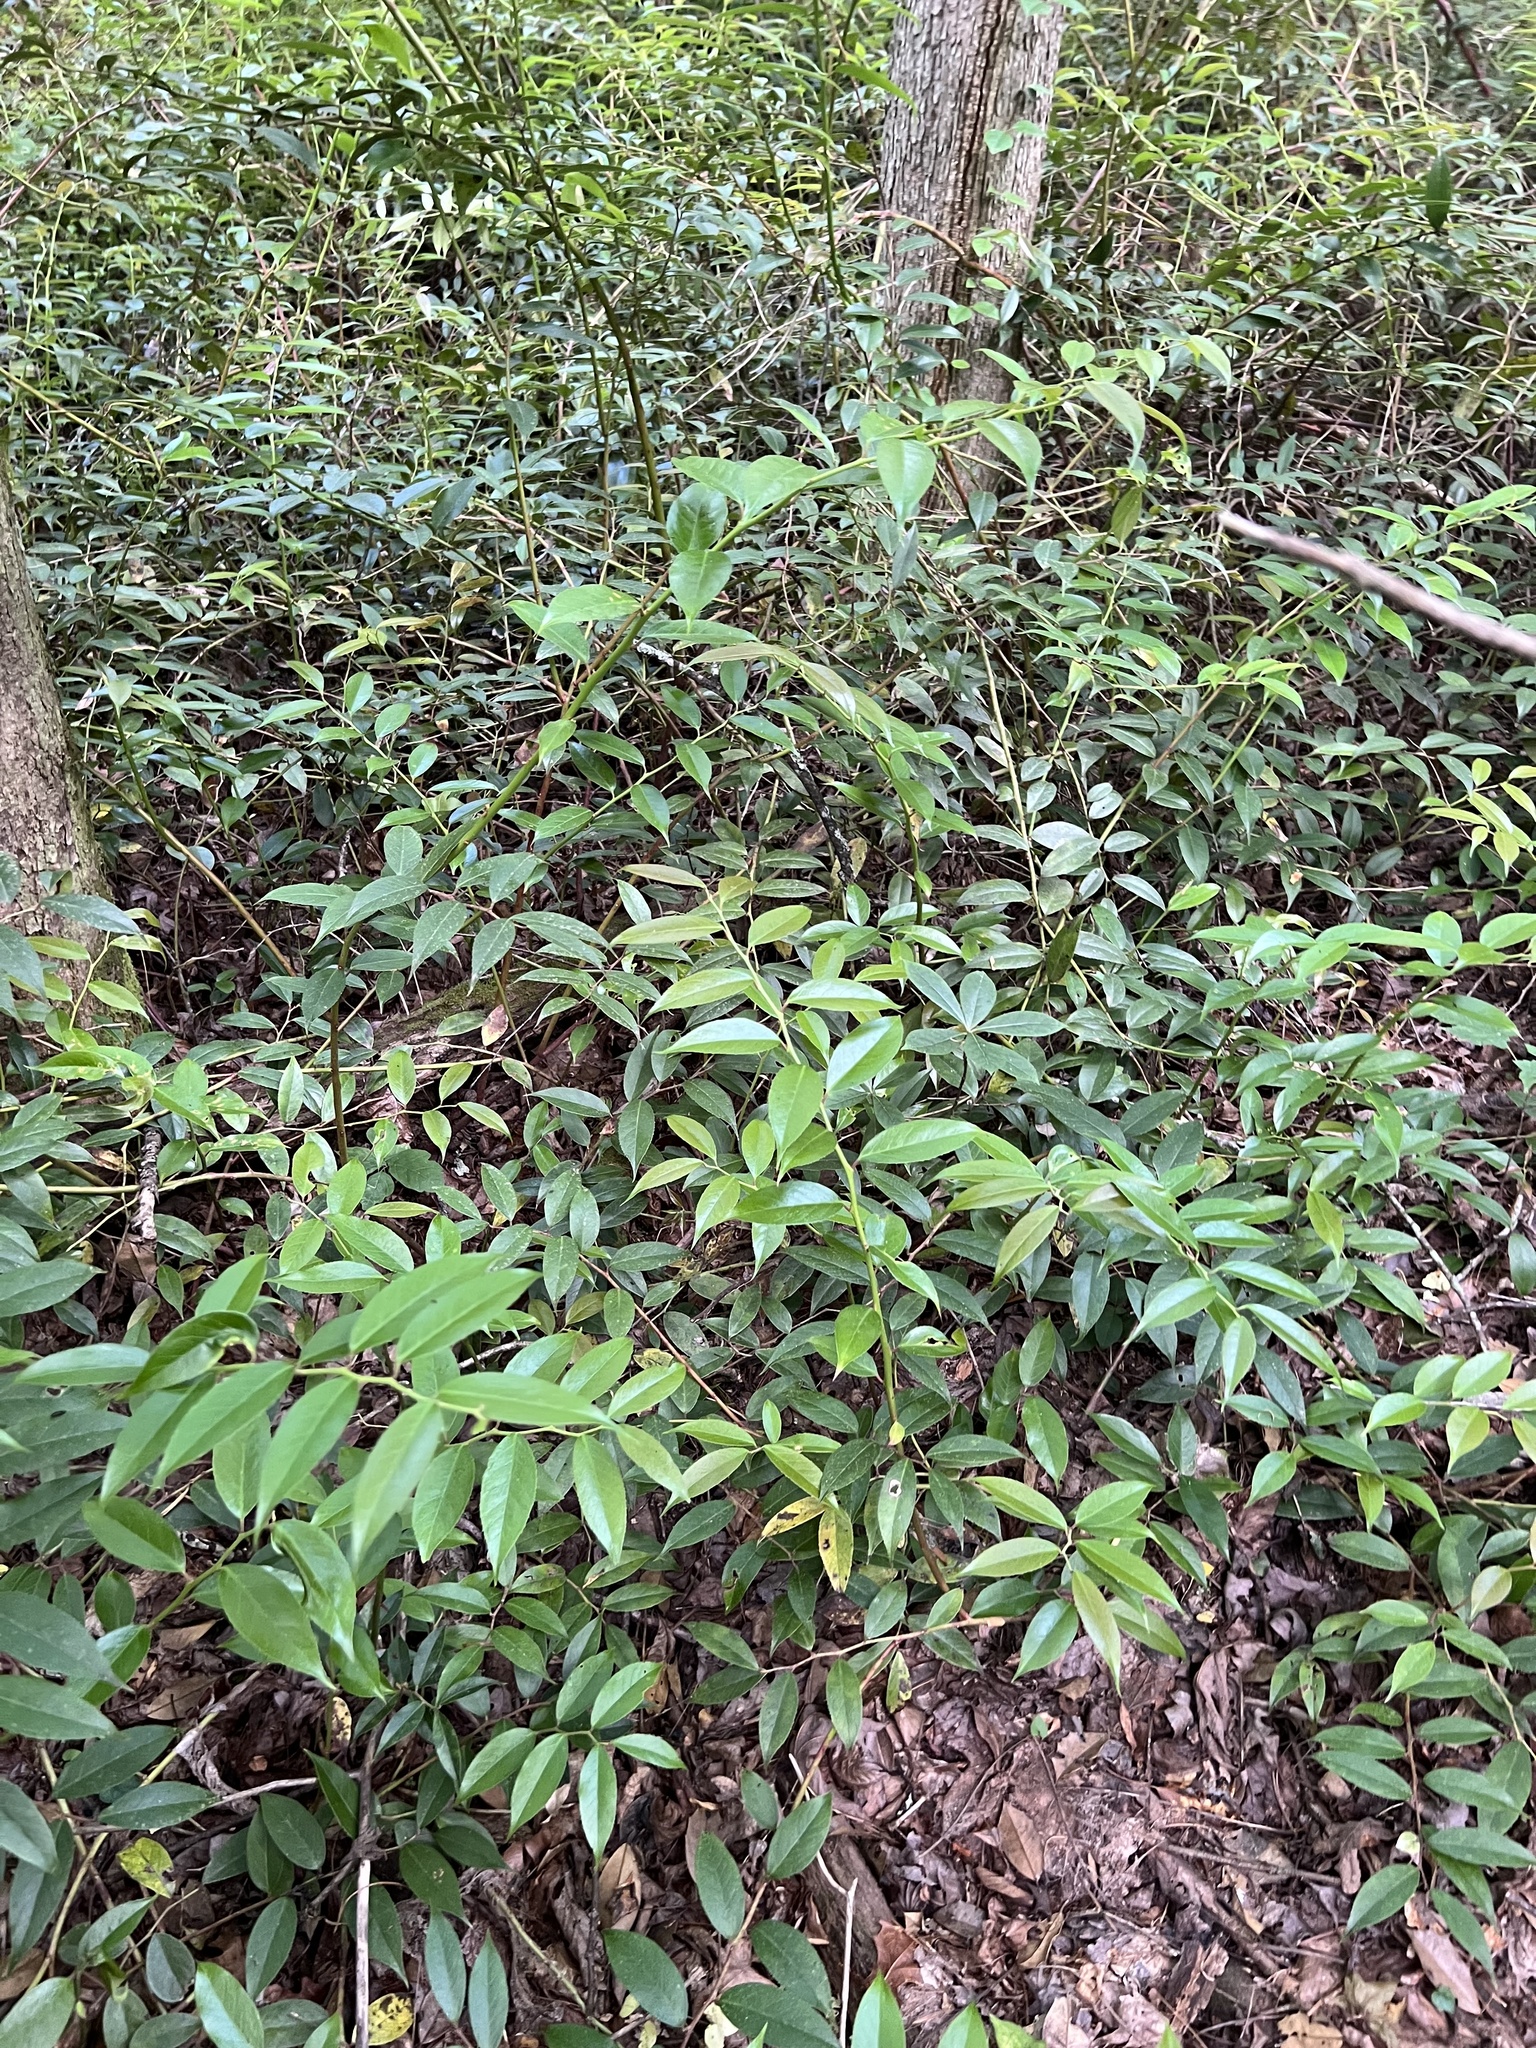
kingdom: Plantae
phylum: Tracheophyta
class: Magnoliopsida
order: Ericales
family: Ericaceae
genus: Leucothoe
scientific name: Leucothoe fontanesiana
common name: Fetterbush
